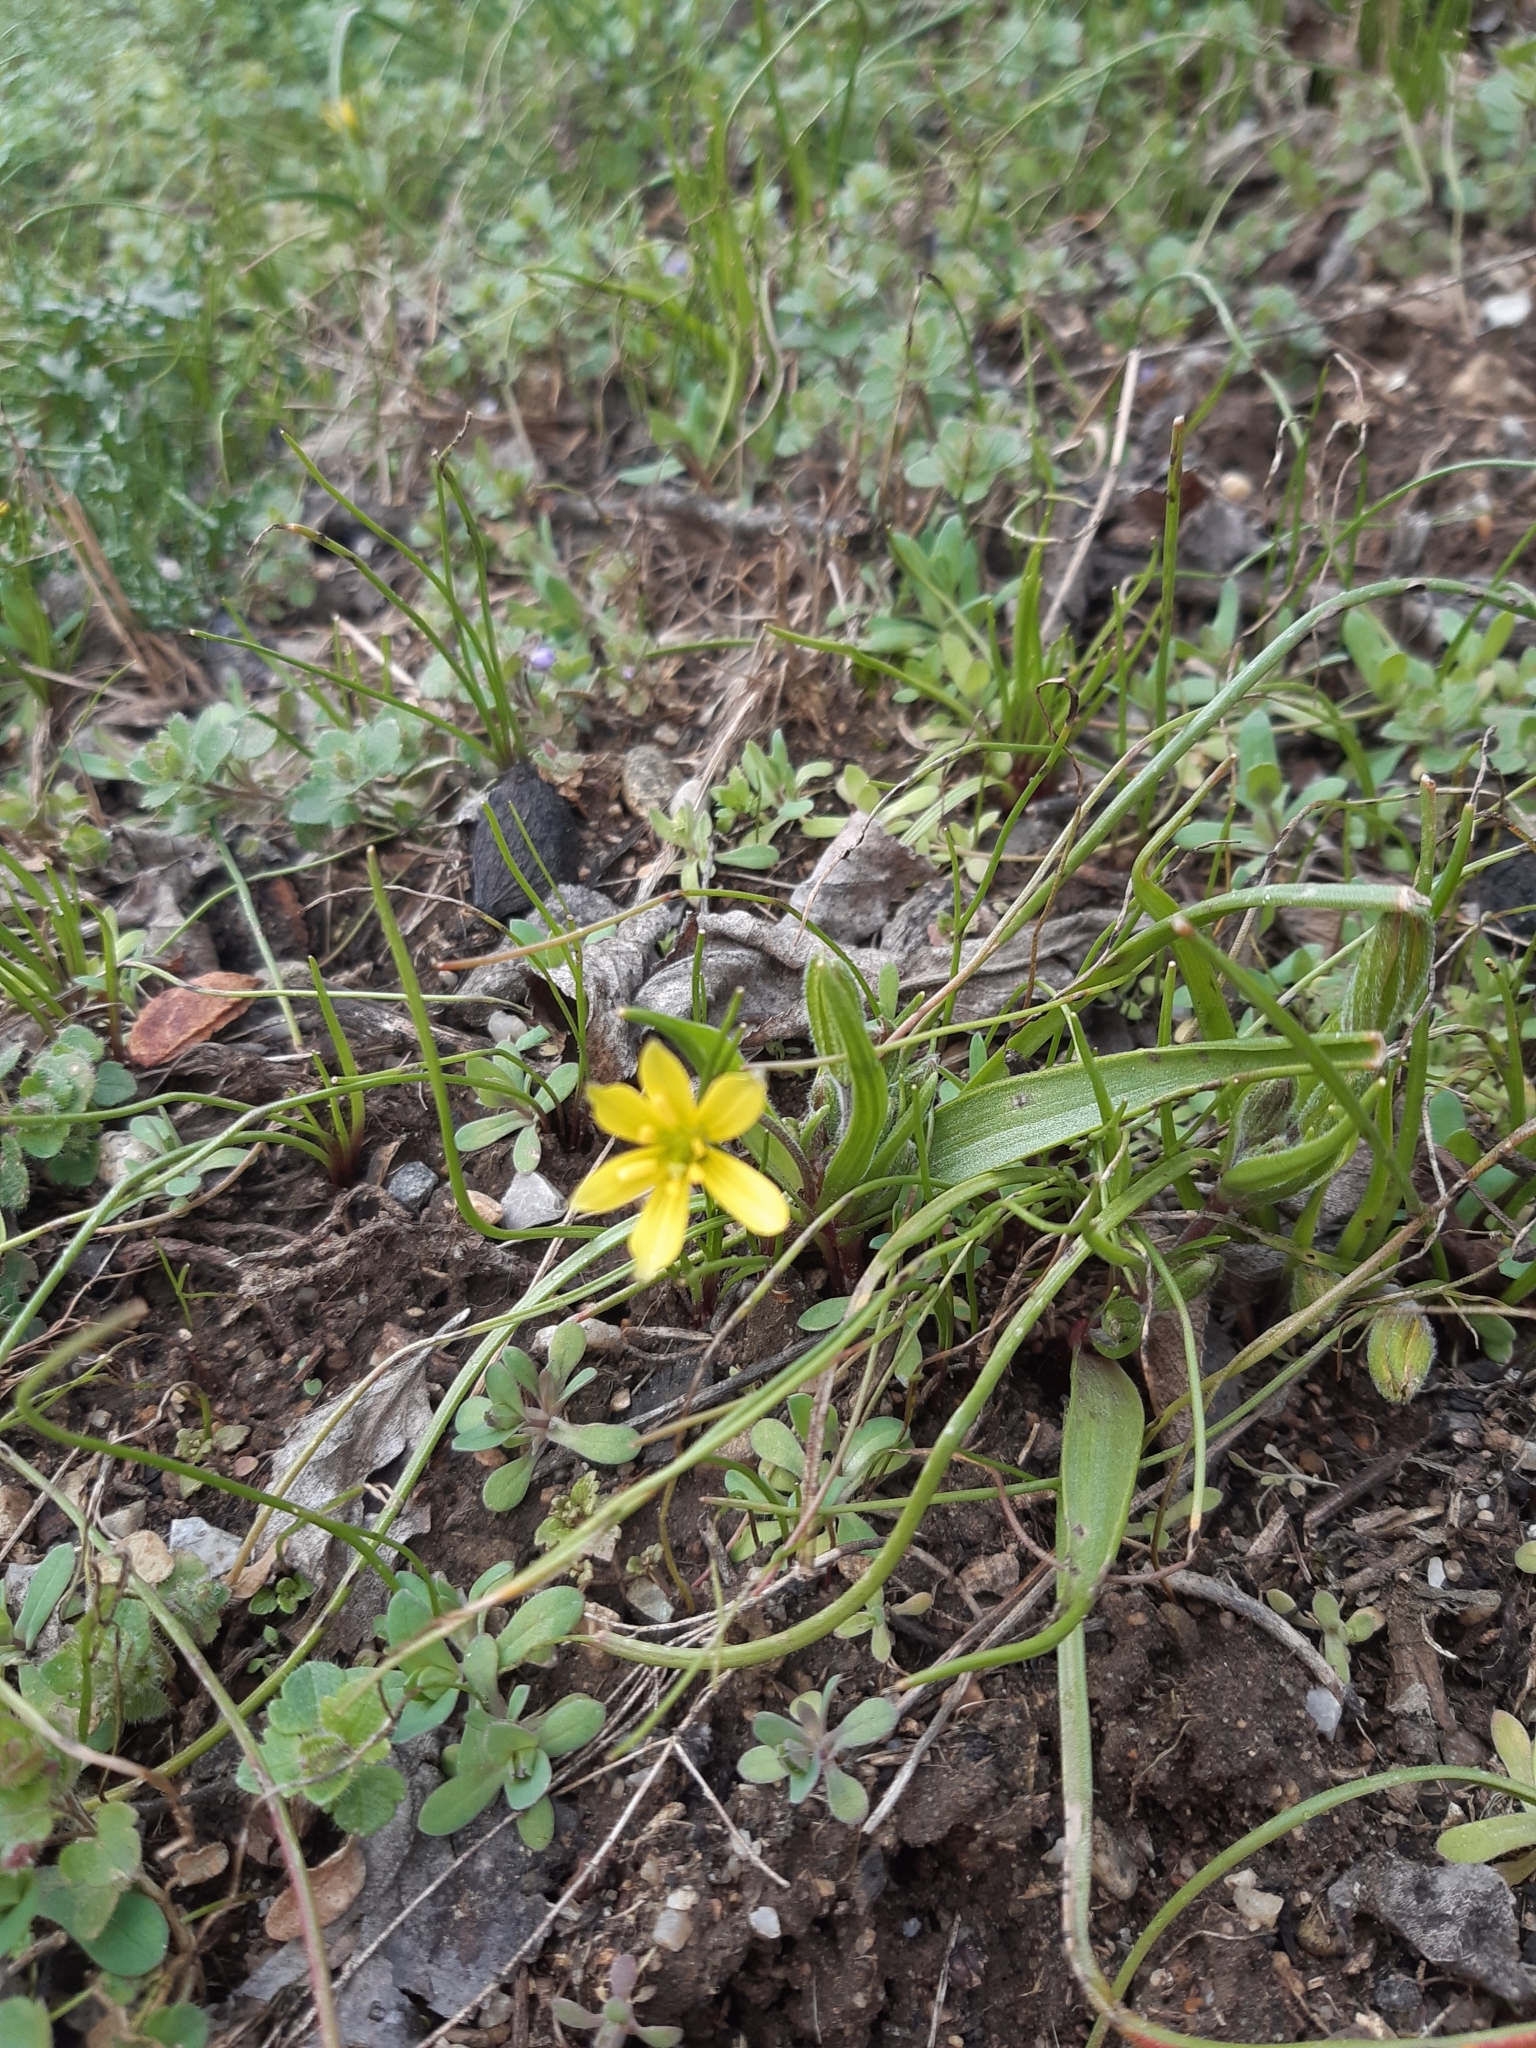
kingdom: Plantae
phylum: Tracheophyta
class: Liliopsida
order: Liliales
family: Liliaceae
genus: Gagea
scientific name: Gagea villosa
